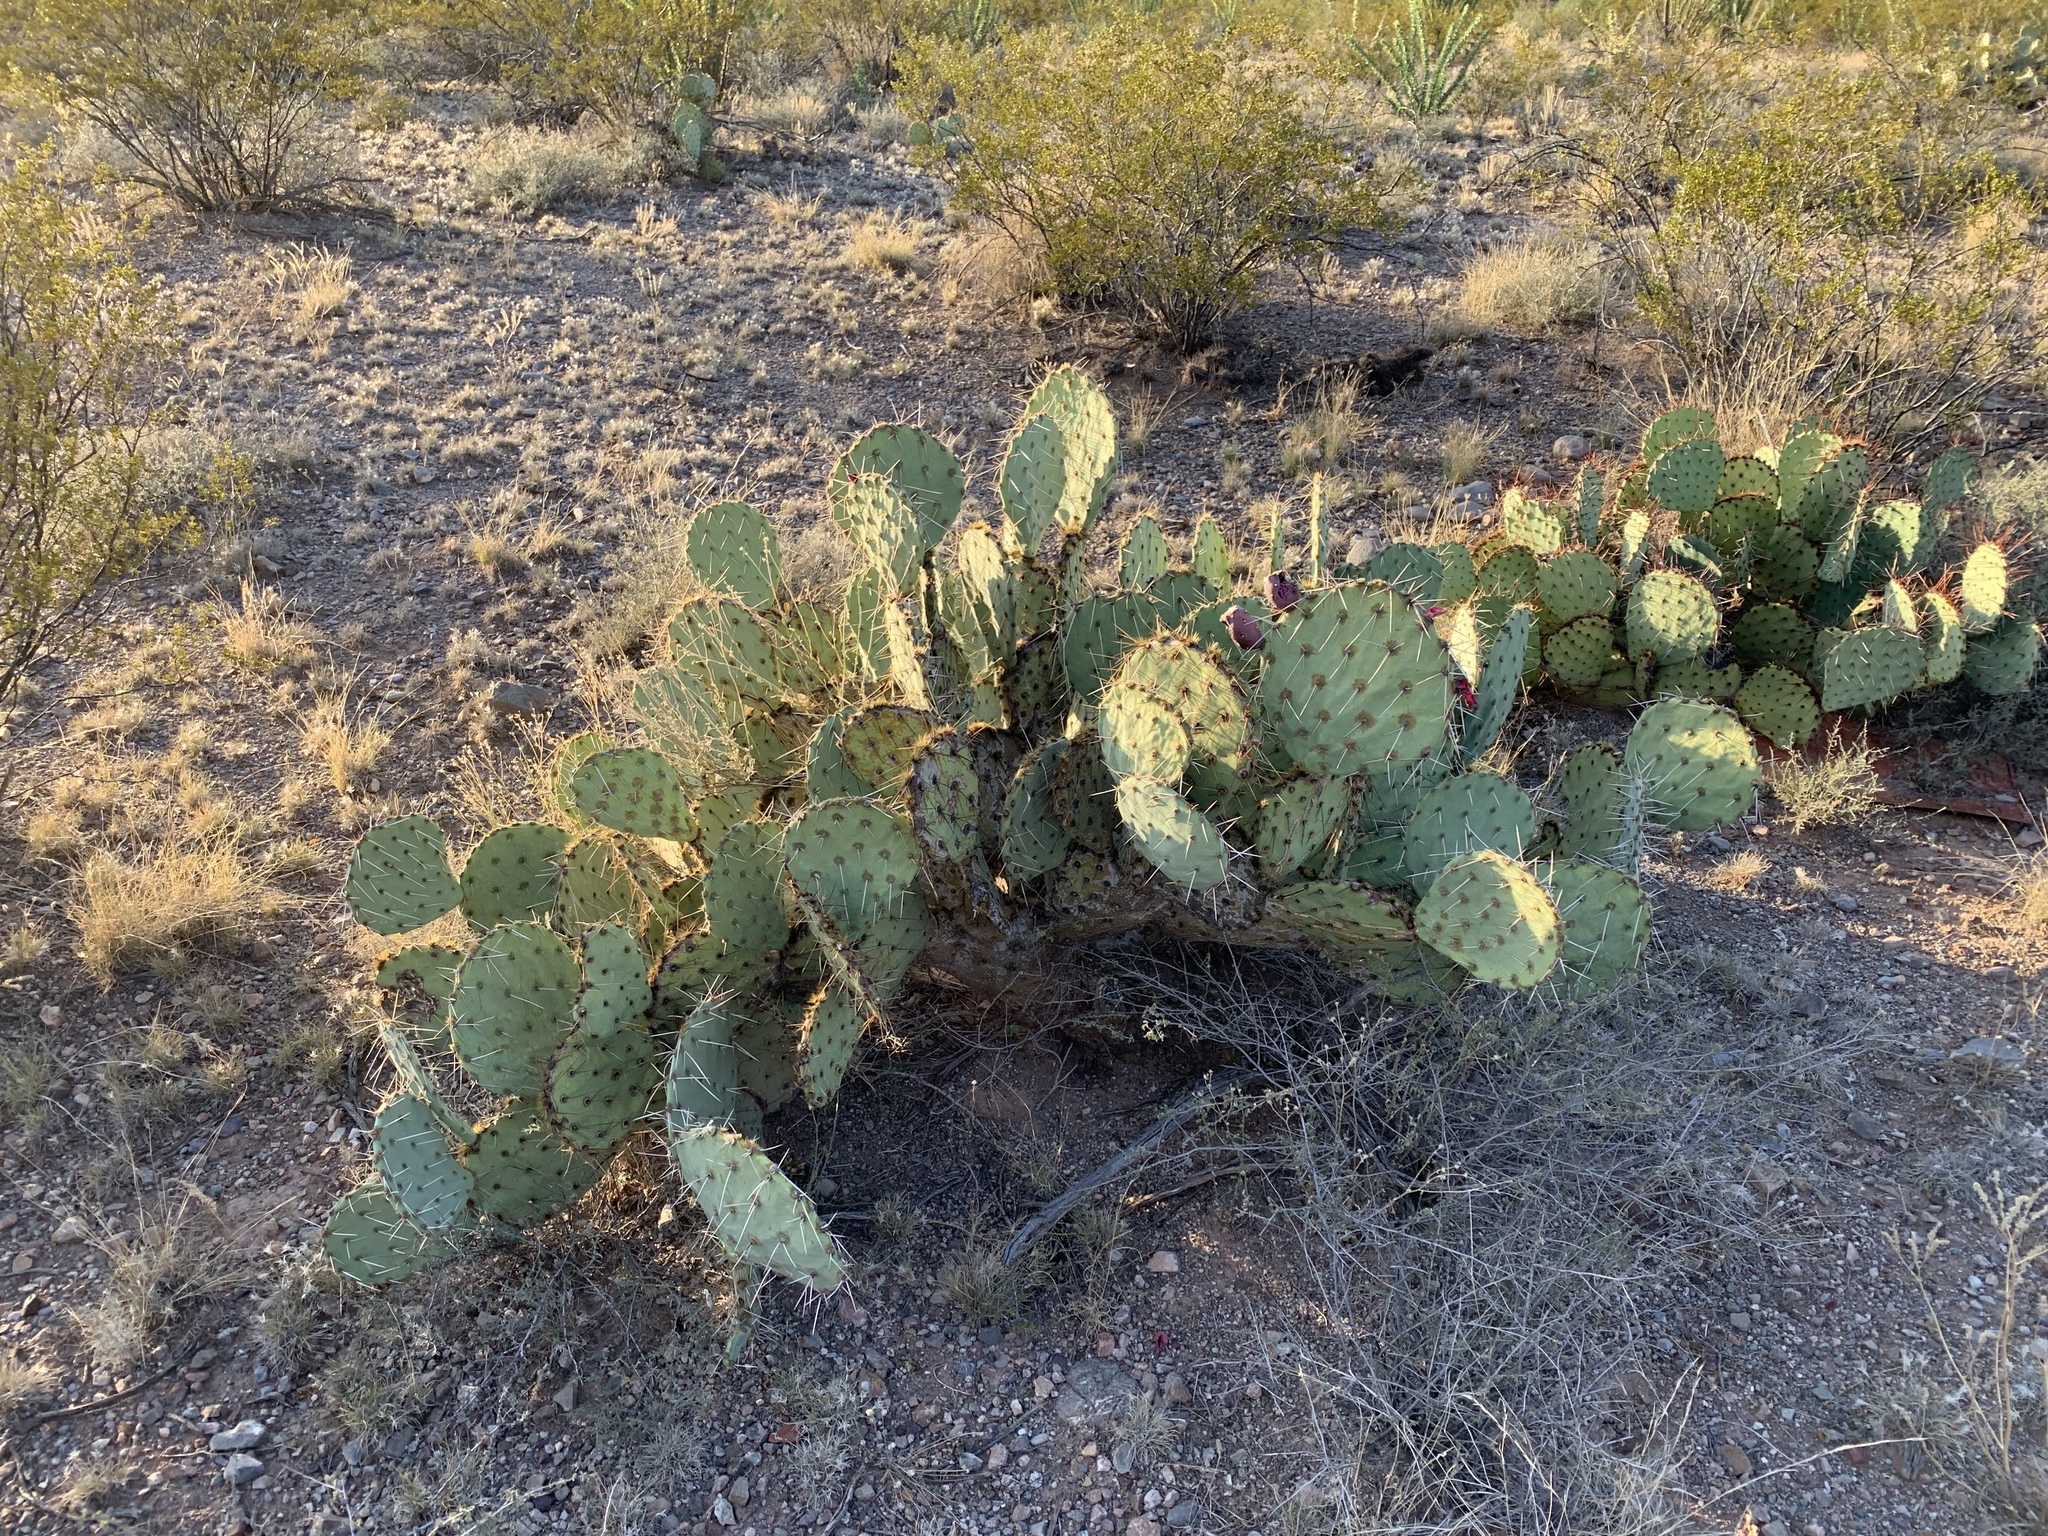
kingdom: Plantae
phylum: Tracheophyta
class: Magnoliopsida
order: Caryophyllales
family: Cactaceae
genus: Opuntia
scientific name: Opuntia engelmannii
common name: Cactus-apple
